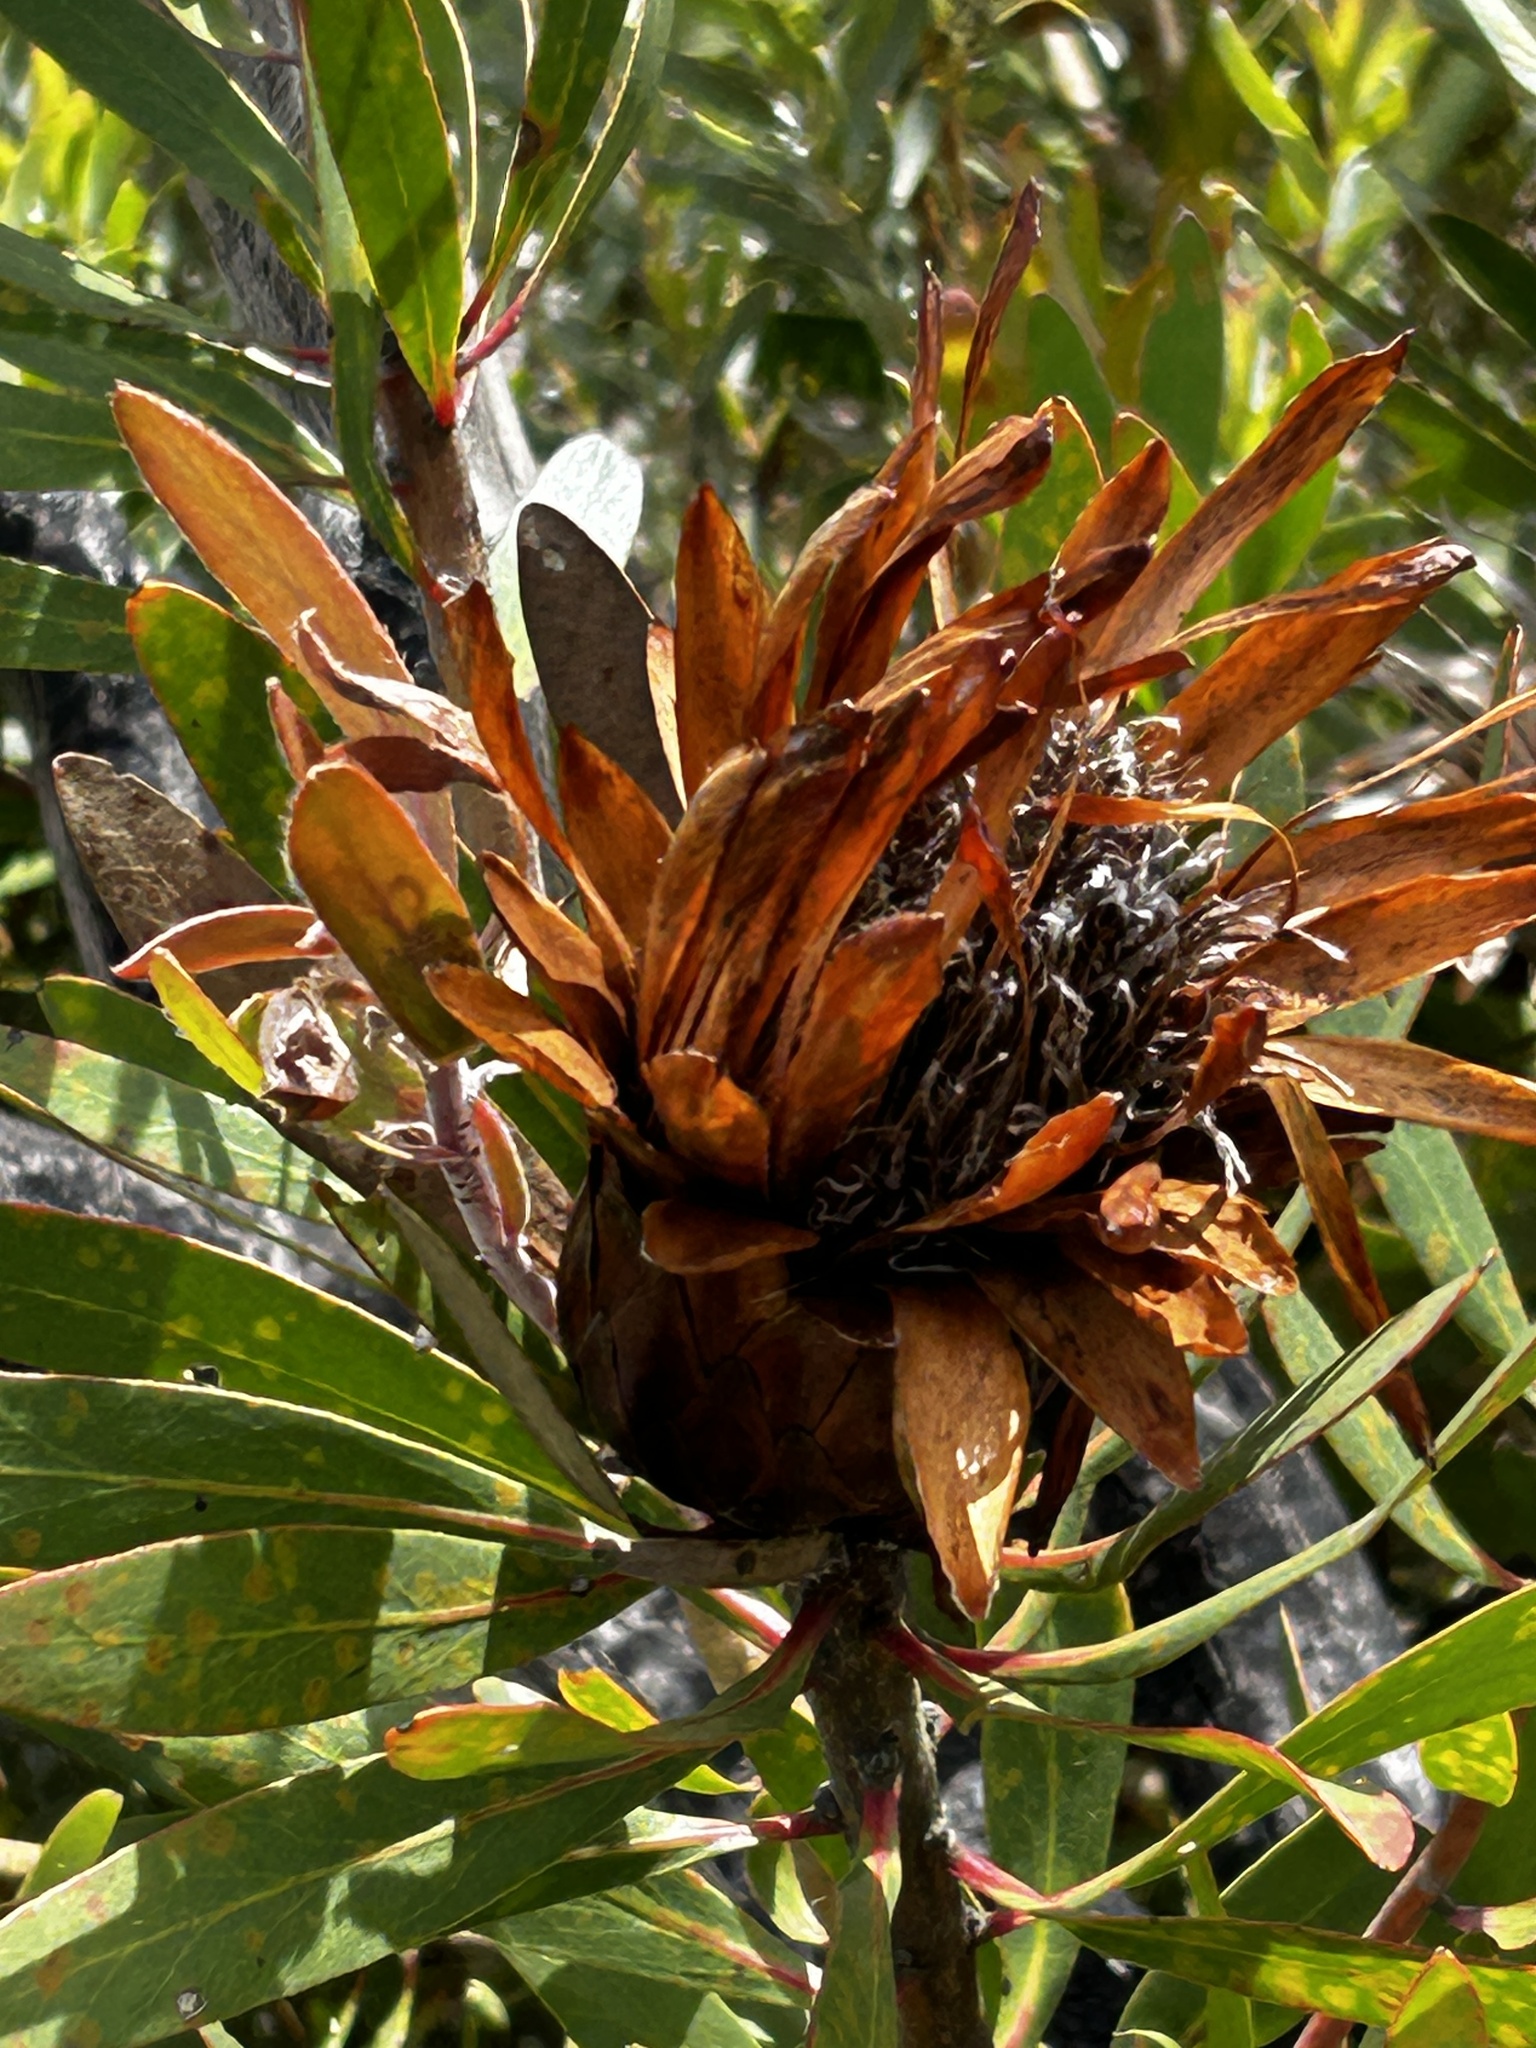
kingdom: Plantae
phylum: Tracheophyta
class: Magnoliopsida
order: Proteales
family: Proteaceae
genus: Protea
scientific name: Protea obtusifolia
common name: Bredasdorp sugarbush
